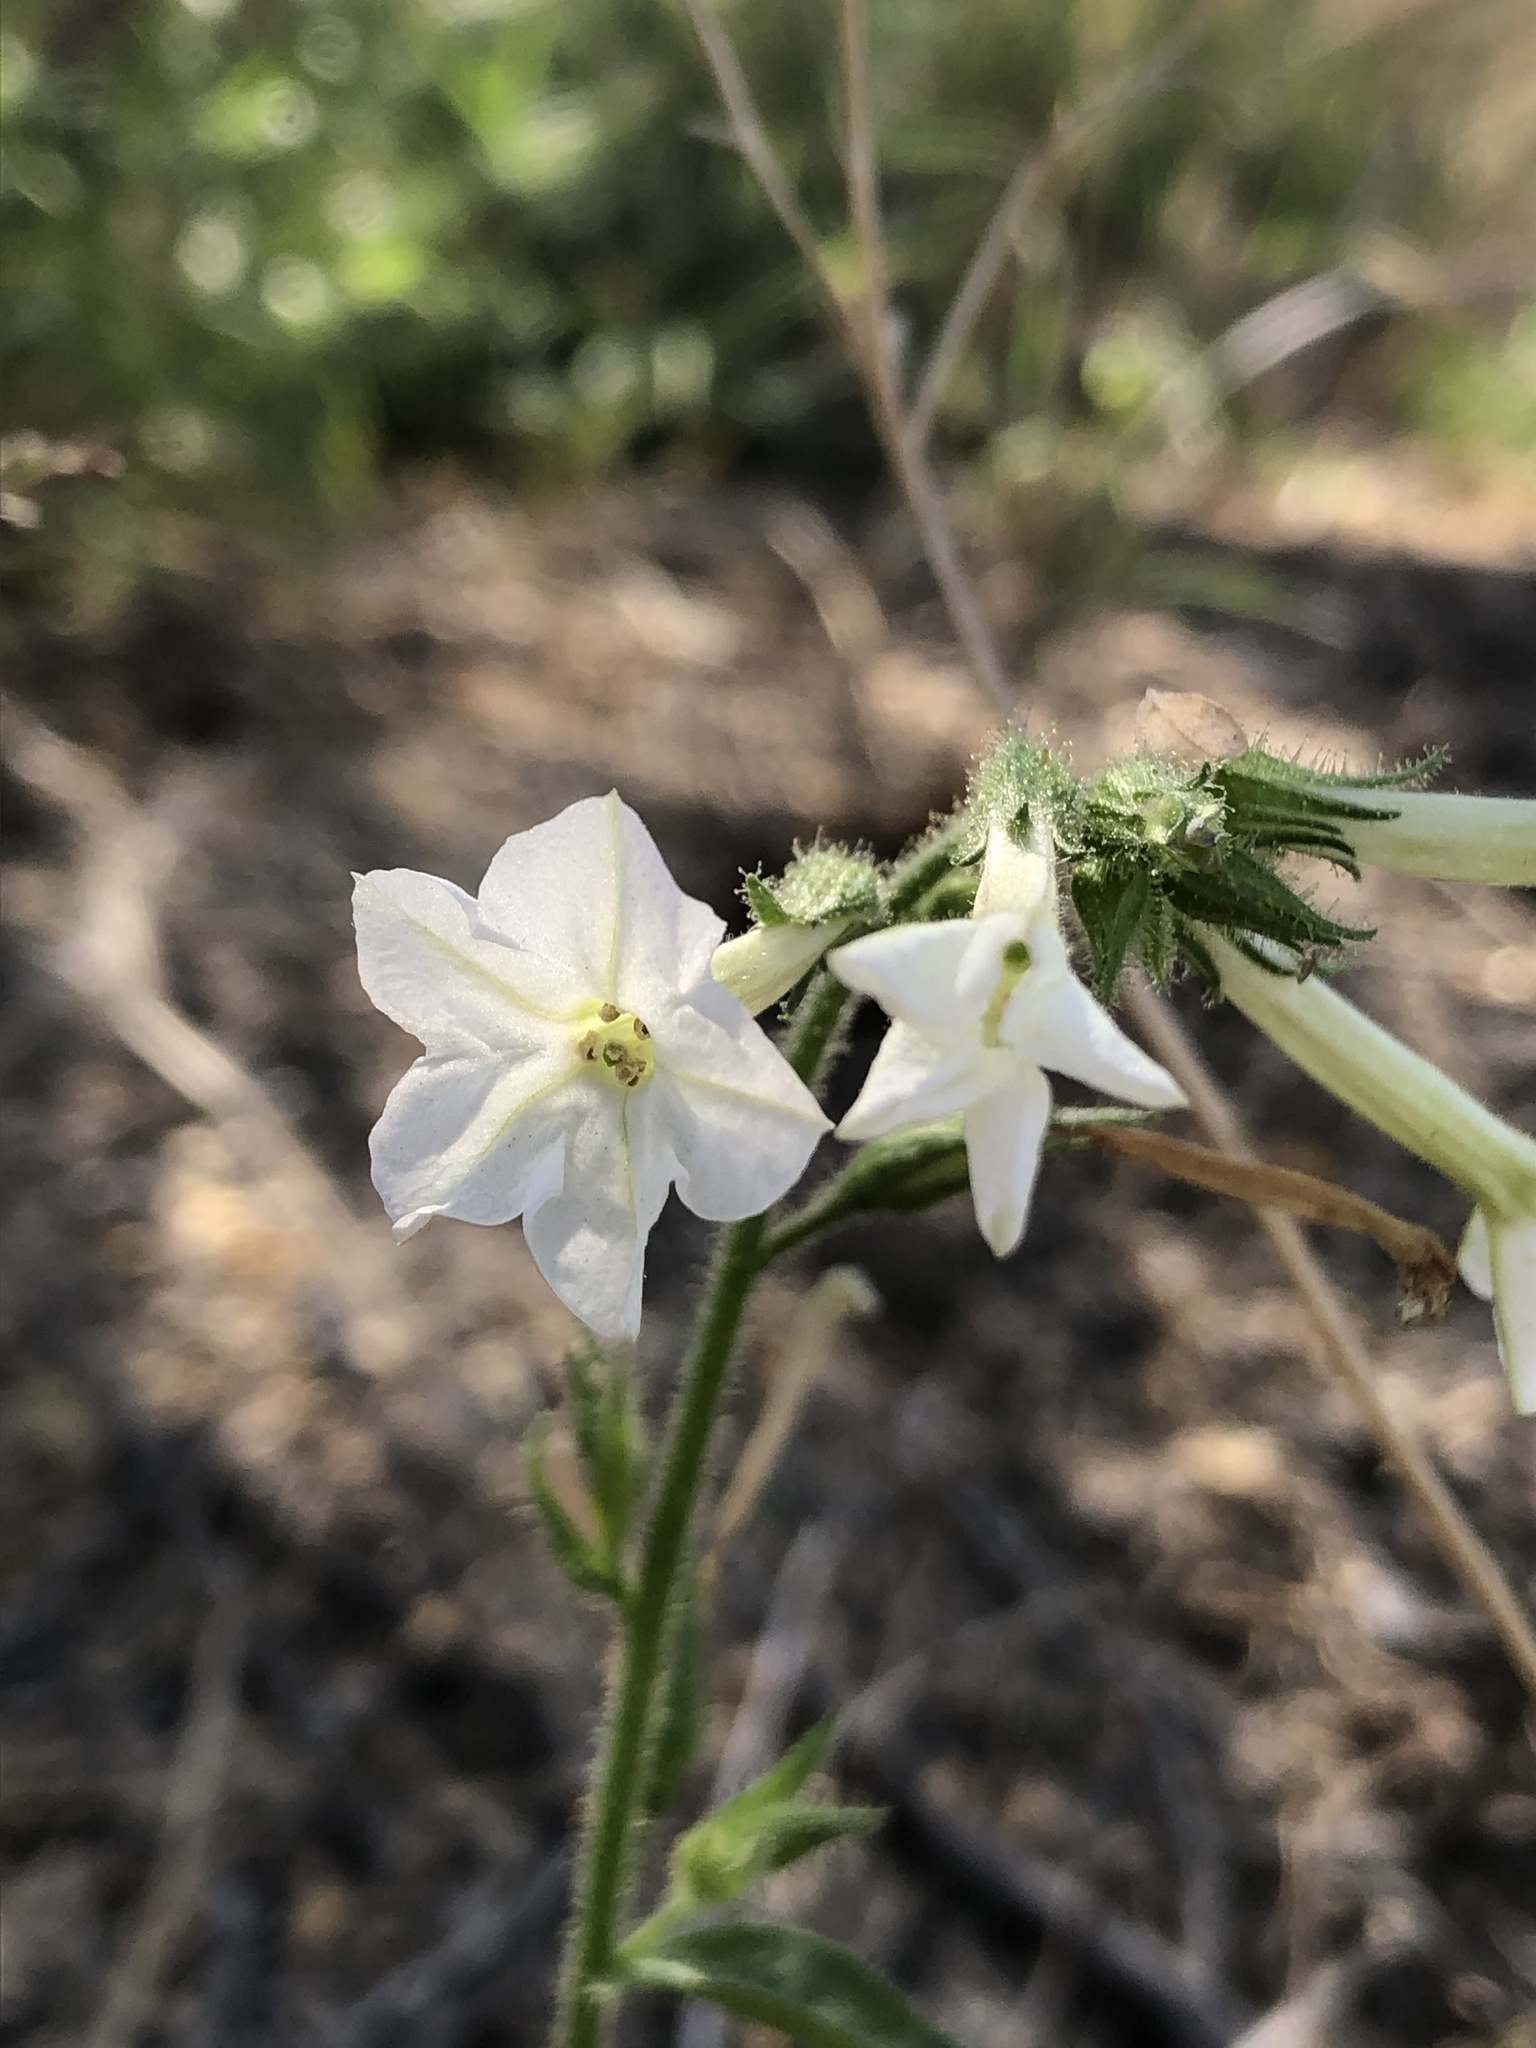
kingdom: Plantae
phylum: Tracheophyta
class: Magnoliopsida
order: Solanales
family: Solanaceae
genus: Nicotiana
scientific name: Nicotiana clevelandii
